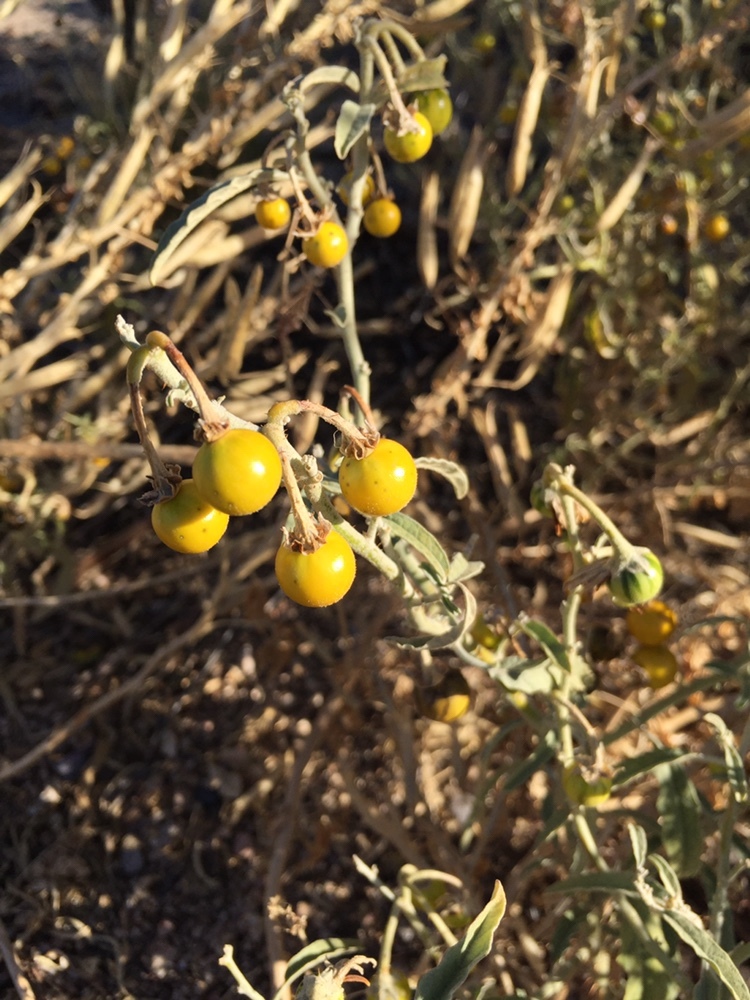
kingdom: Plantae
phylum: Tracheophyta
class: Magnoliopsida
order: Solanales
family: Solanaceae
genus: Solanum
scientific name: Solanum elaeagnifolium
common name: Silverleaf nightshade
